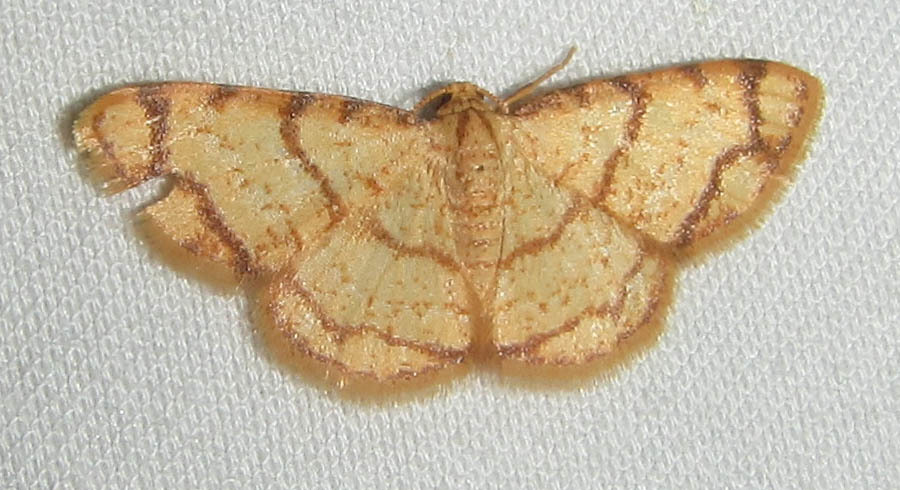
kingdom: Animalia
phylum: Arthropoda
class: Insecta
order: Lepidoptera
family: Geometridae
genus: Lomographa
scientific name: Lomographa indularia
